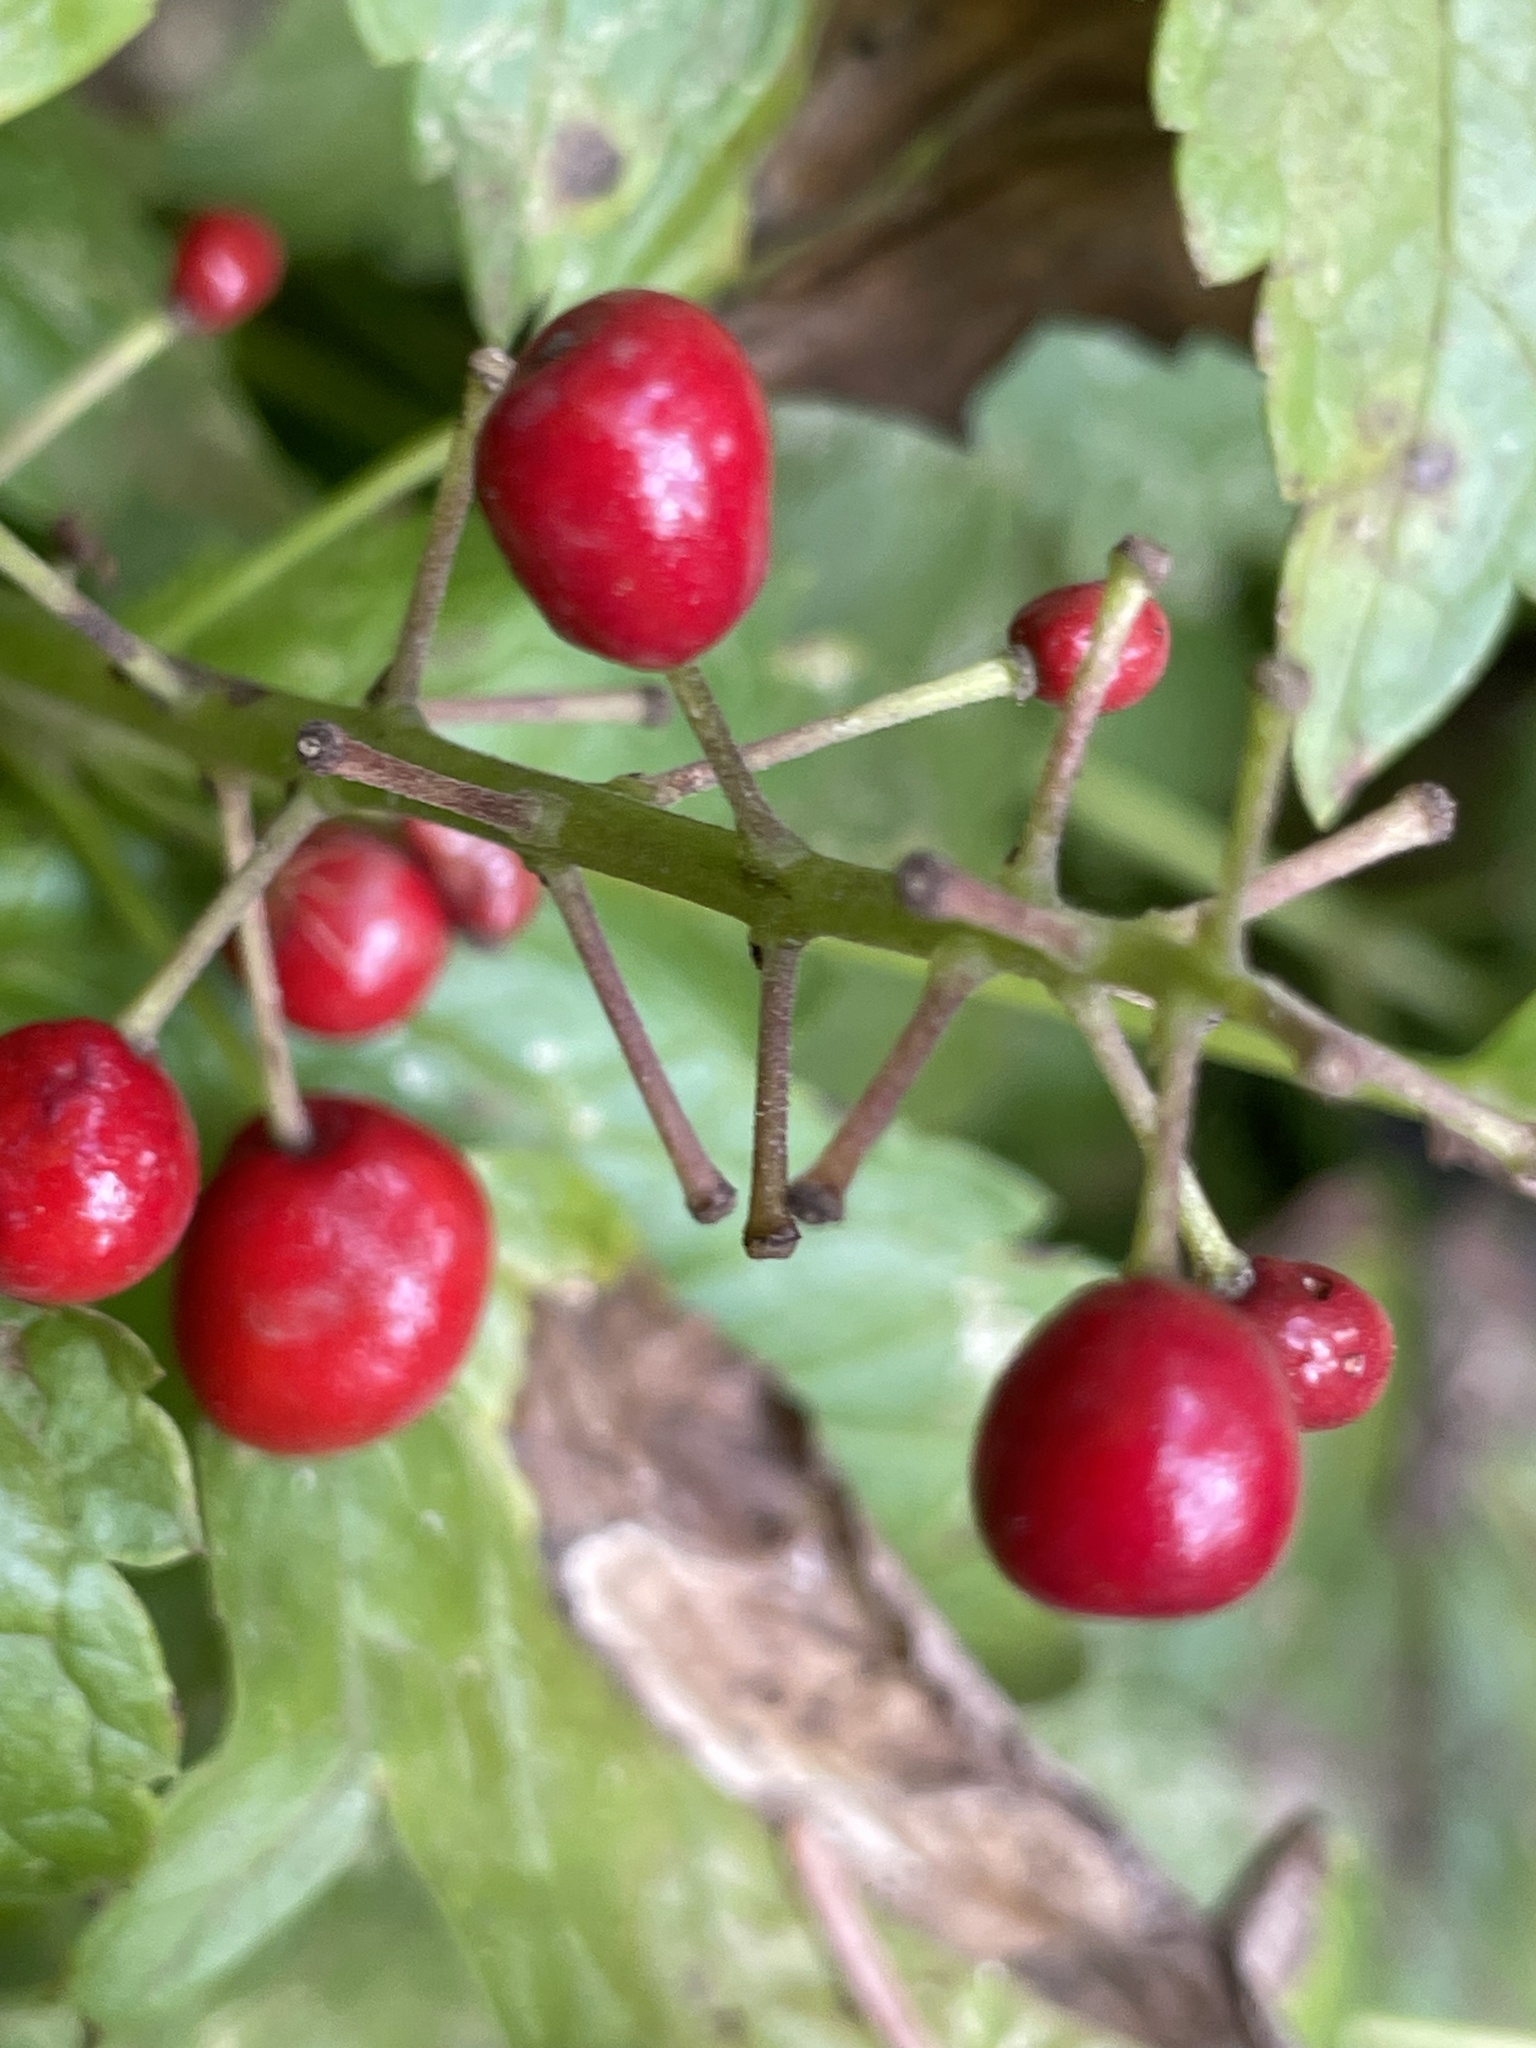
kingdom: Plantae
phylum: Tracheophyta
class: Magnoliopsida
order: Ranunculales
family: Ranunculaceae
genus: Actaea
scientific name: Actaea rubra
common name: Red baneberry
